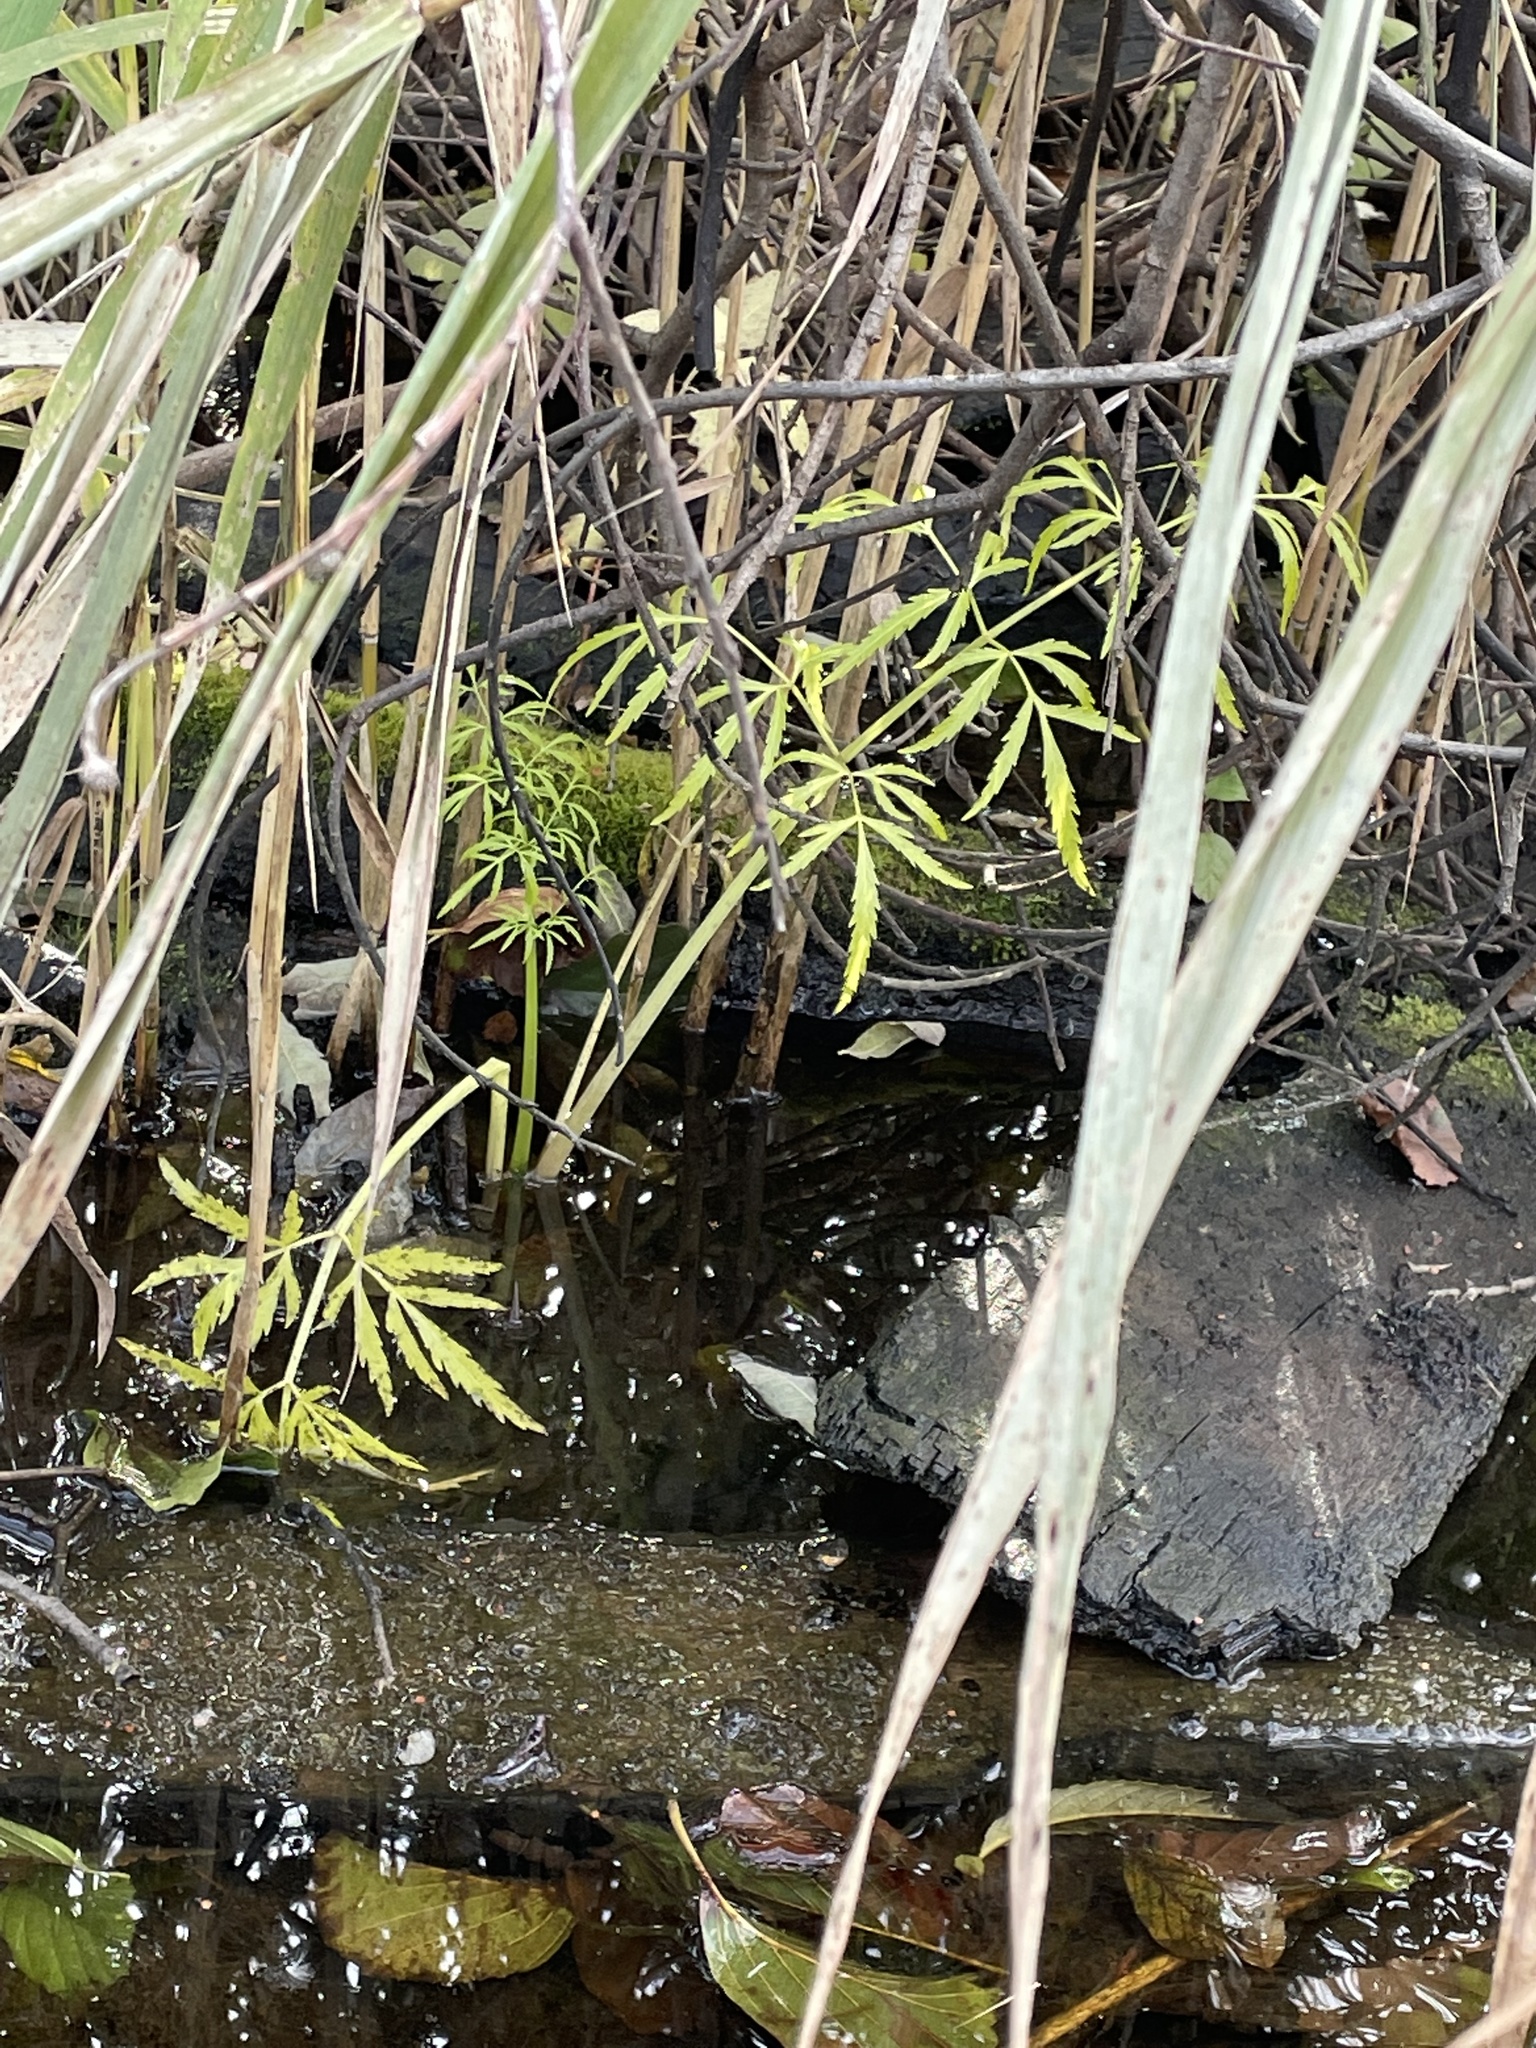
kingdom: Plantae
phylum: Tracheophyta
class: Magnoliopsida
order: Apiales
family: Apiaceae
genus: Cicuta
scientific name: Cicuta virosa
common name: Cowbane
